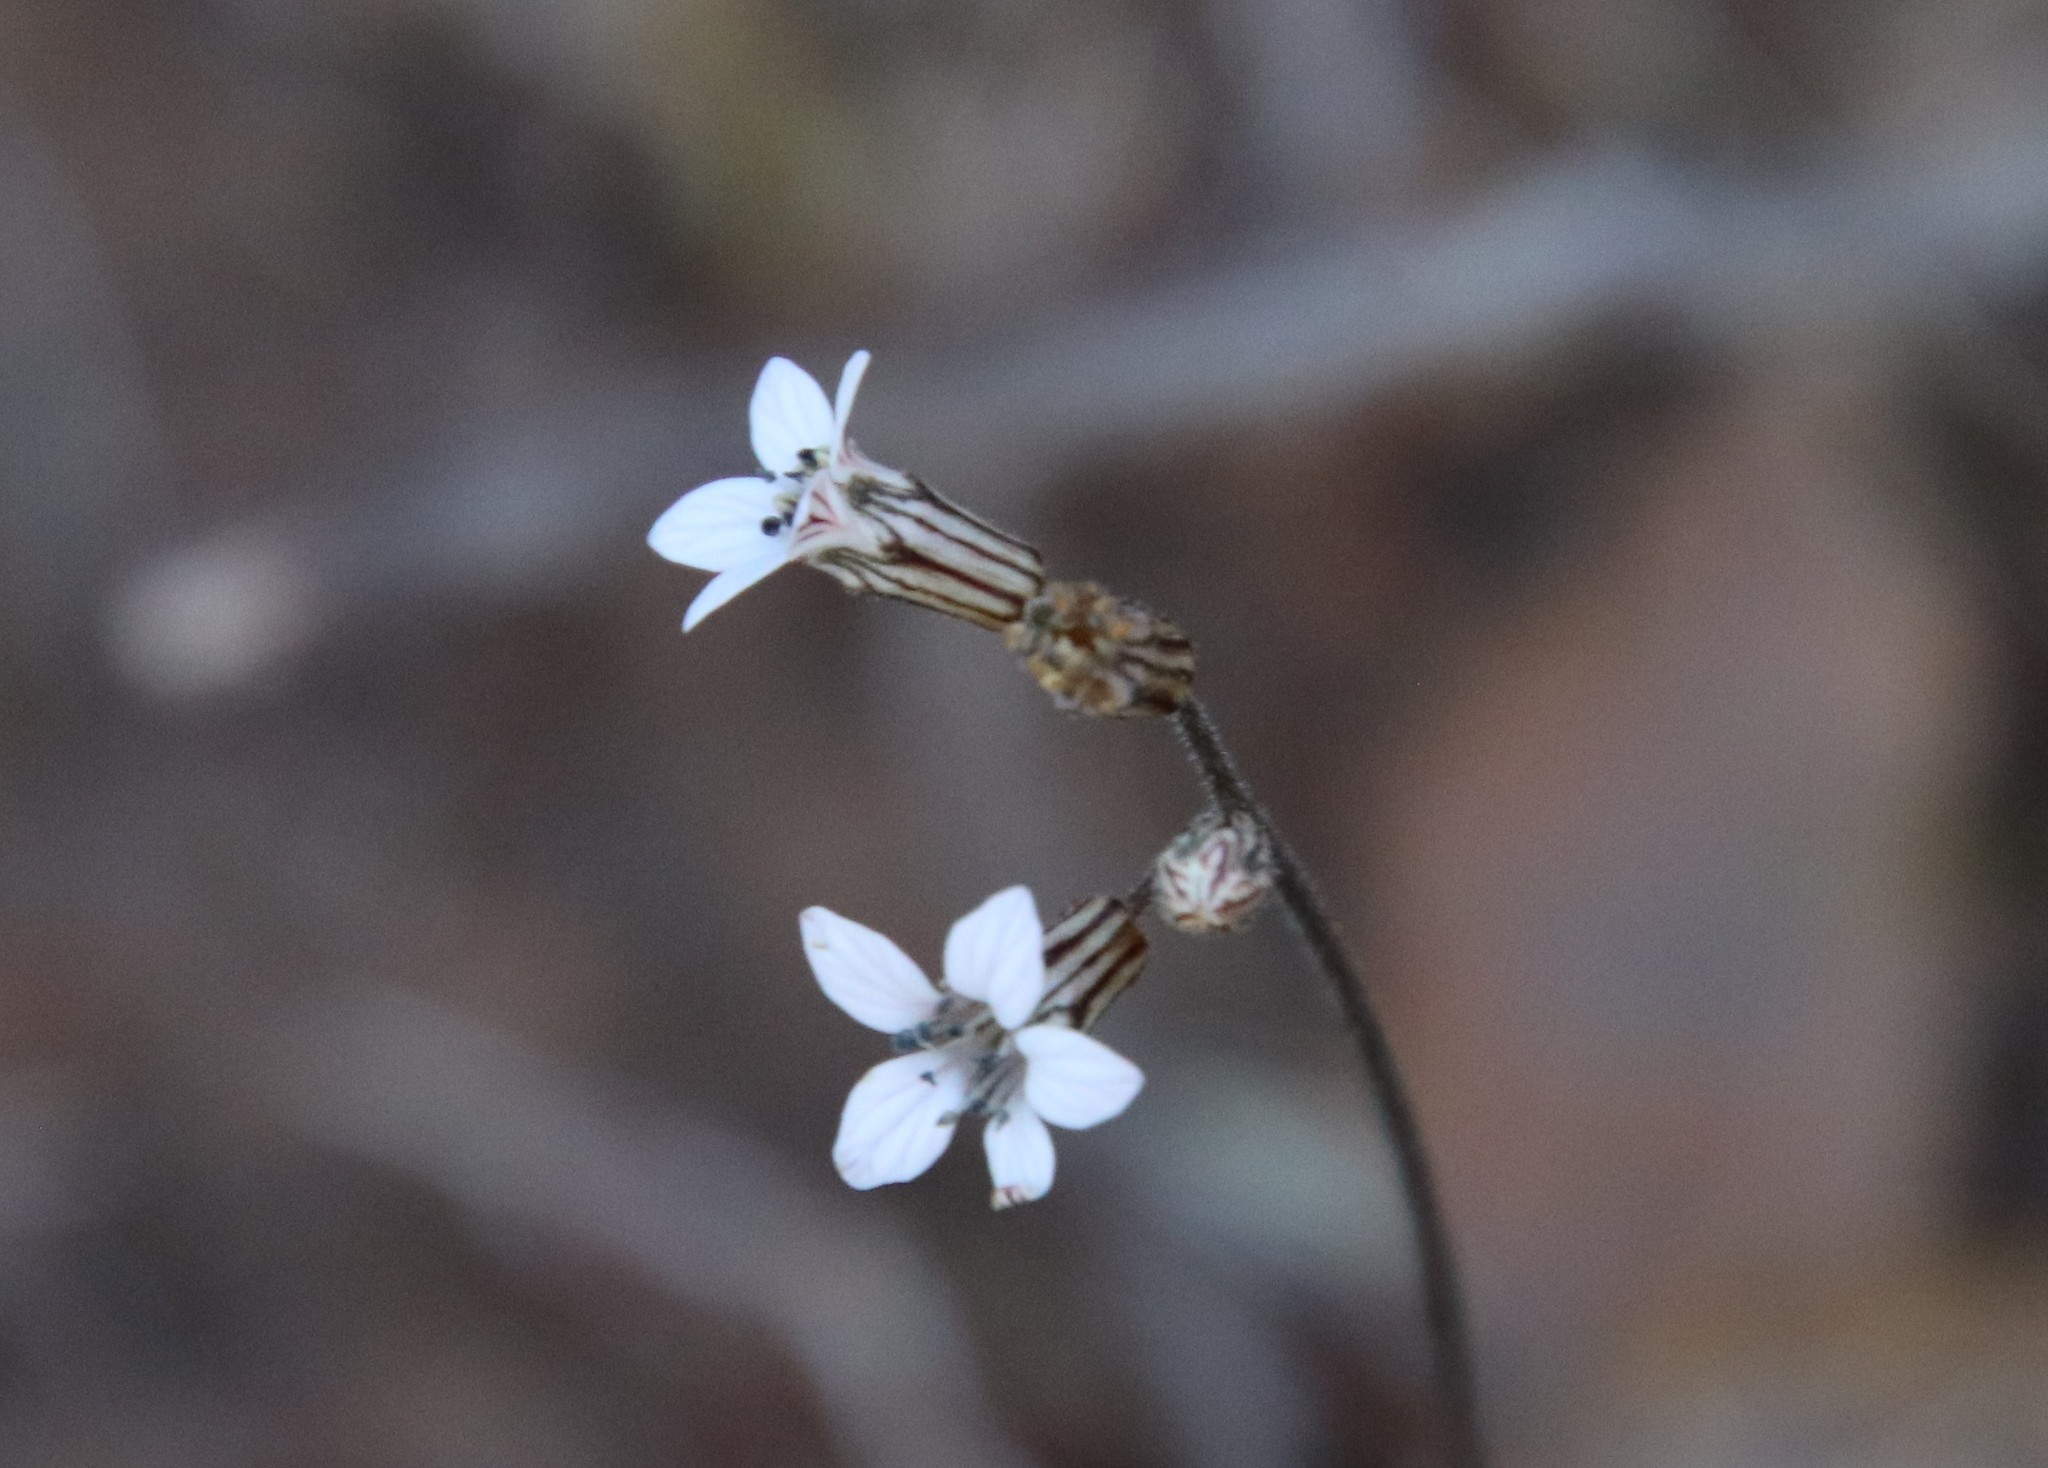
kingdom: Plantae
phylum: Tracheophyta
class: Magnoliopsida
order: Saxifragales
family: Saxifragaceae
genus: Jepsonia
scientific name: Jepsonia parryi
